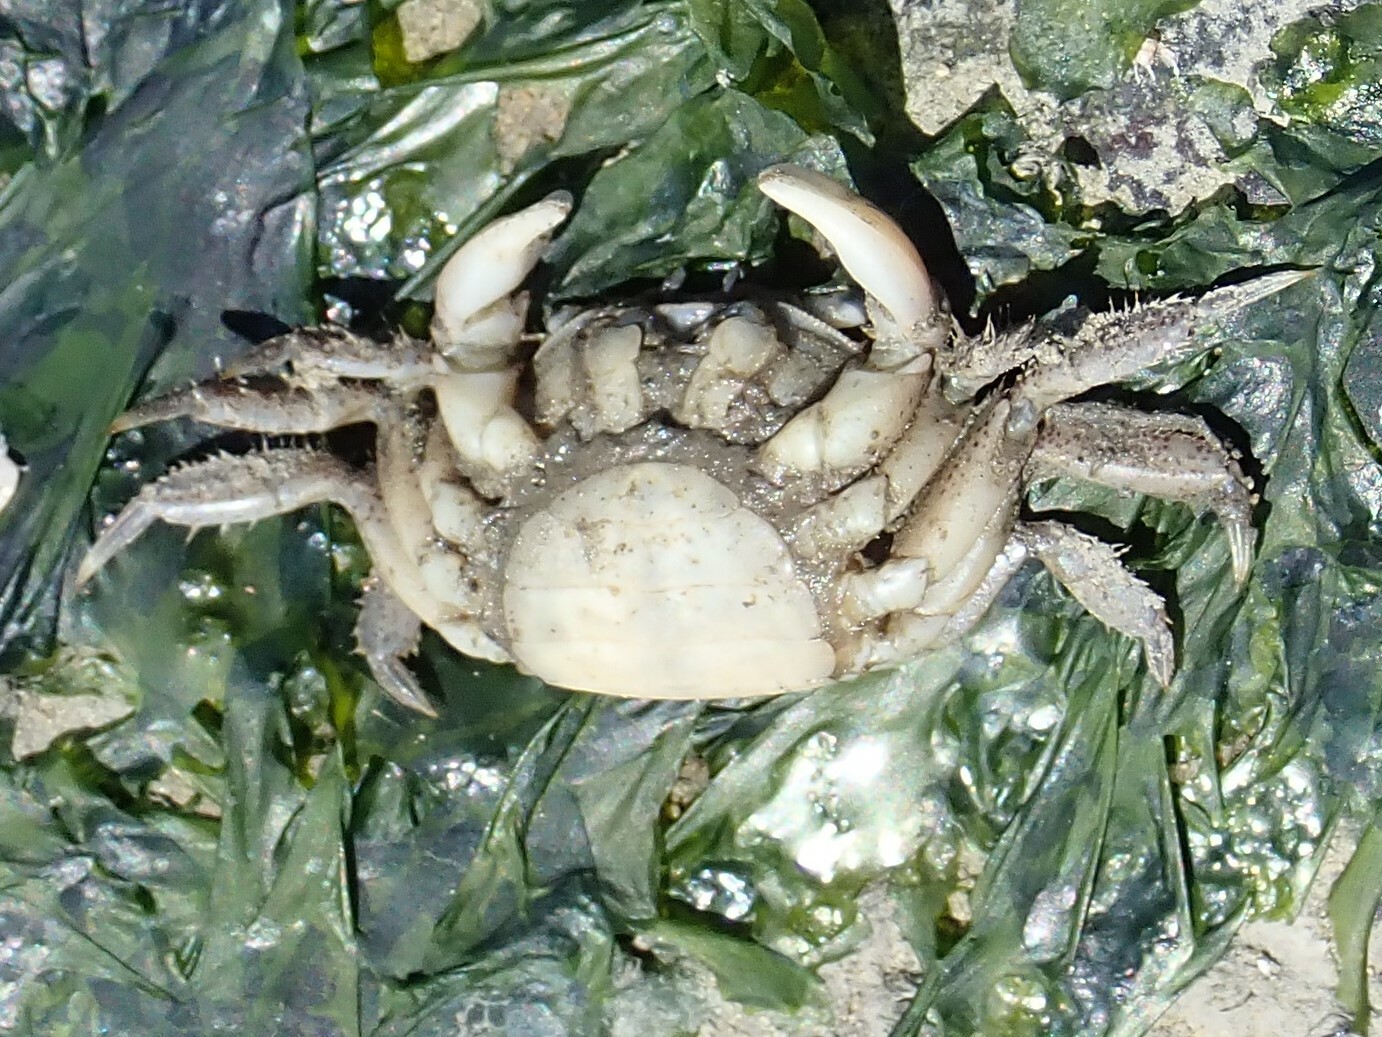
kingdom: Animalia
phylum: Arthropoda
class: Malacostraca
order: Decapoda
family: Varunidae
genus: Hemigrapsus
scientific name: Hemigrapsus oregonensis
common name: Yellow shore crab
